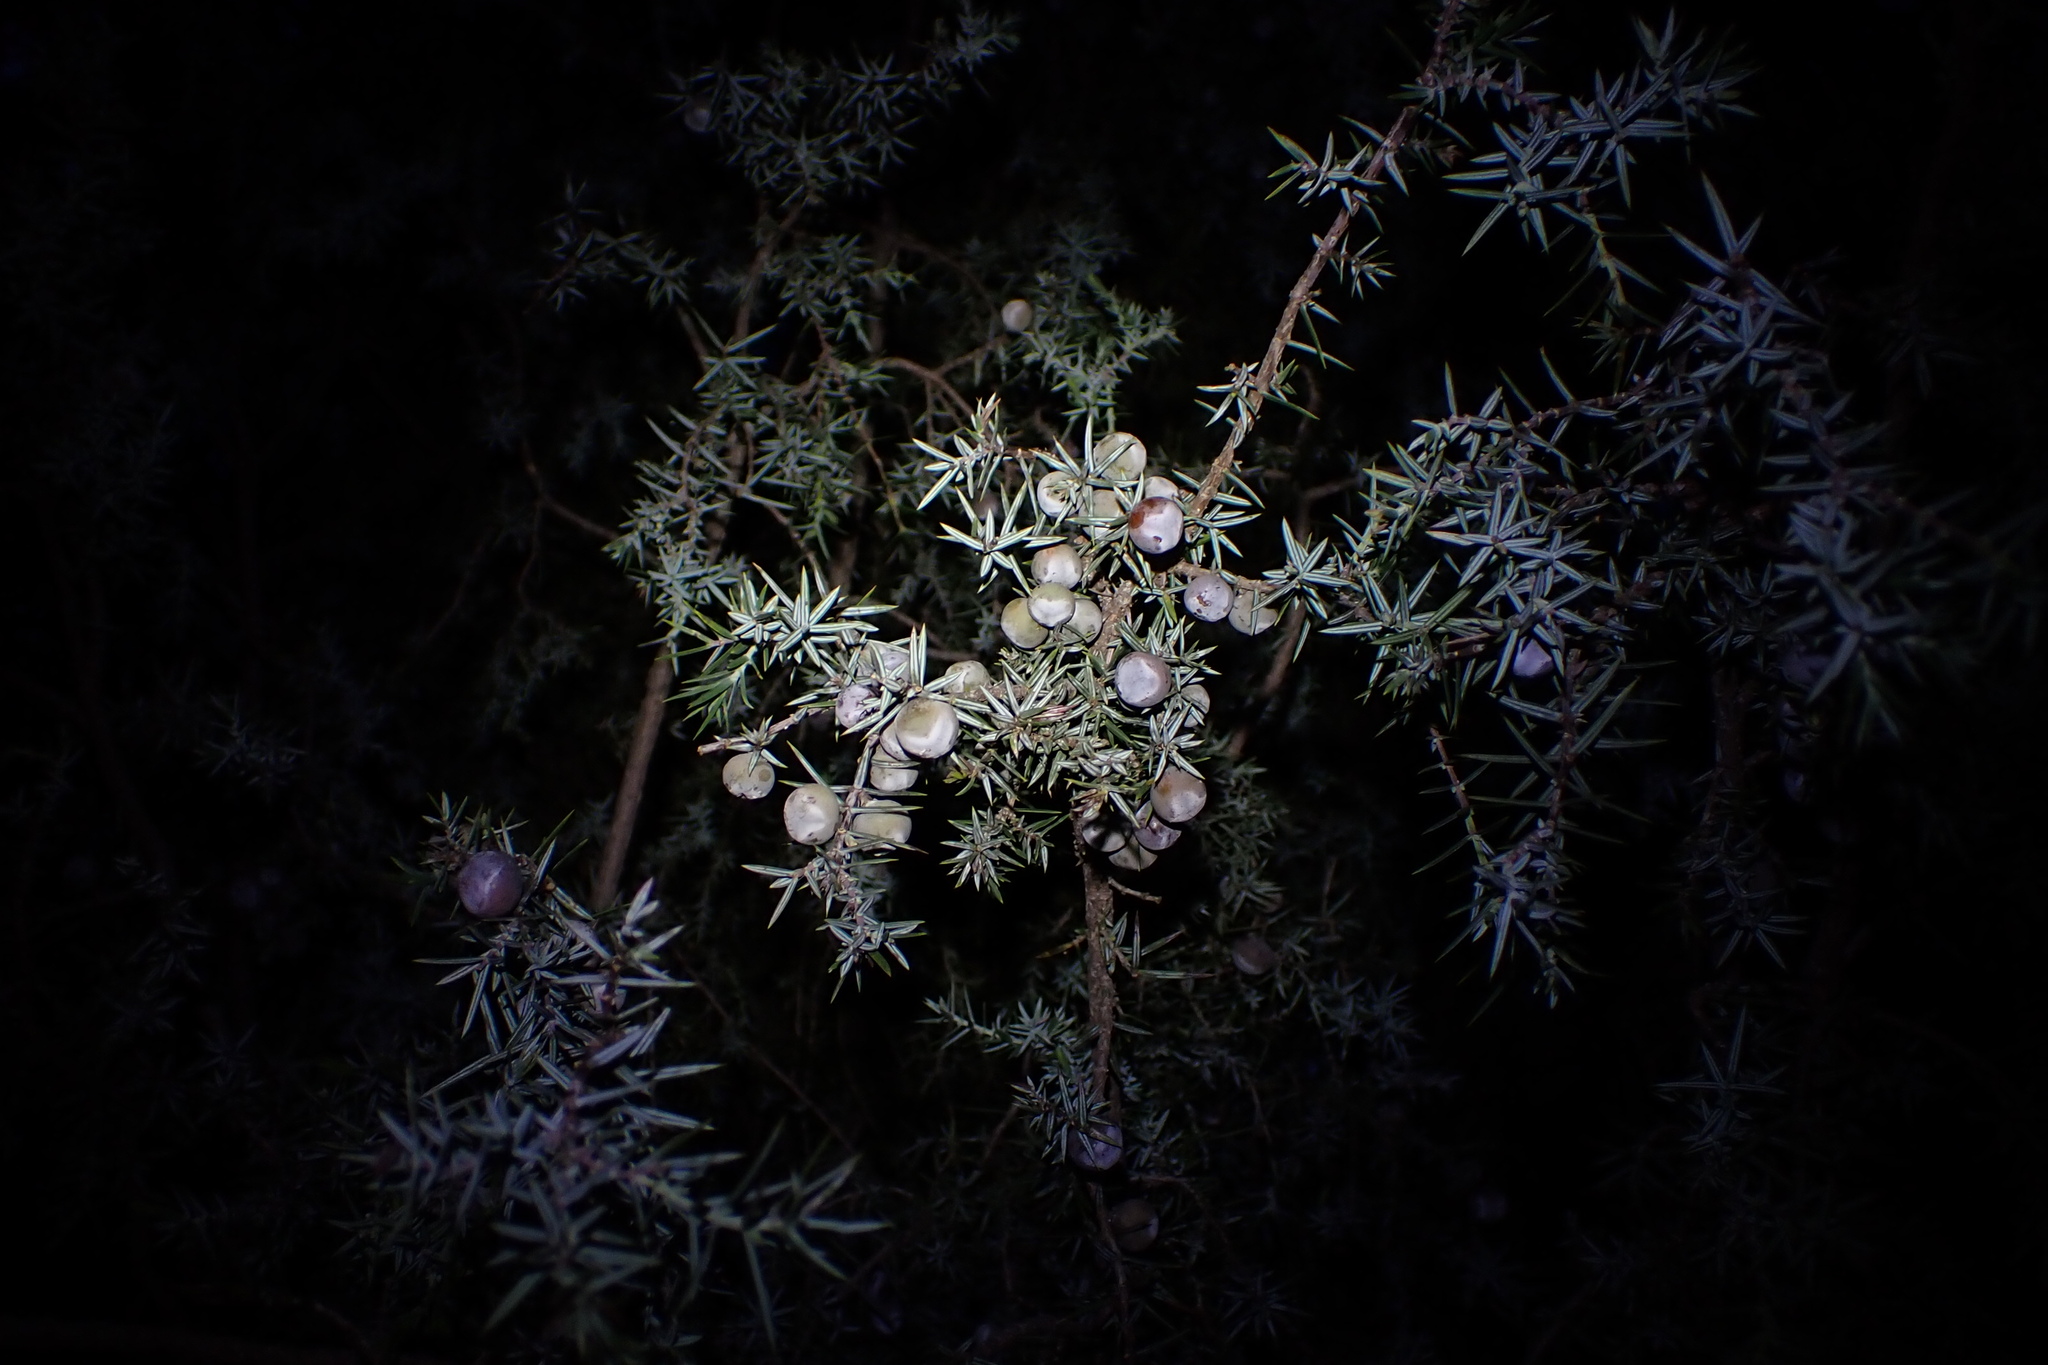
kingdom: Plantae
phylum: Tracheophyta
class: Pinopsida
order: Pinales
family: Cupressaceae
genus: Juniperus
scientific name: Juniperus oxycedrus
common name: Prickly juniper
